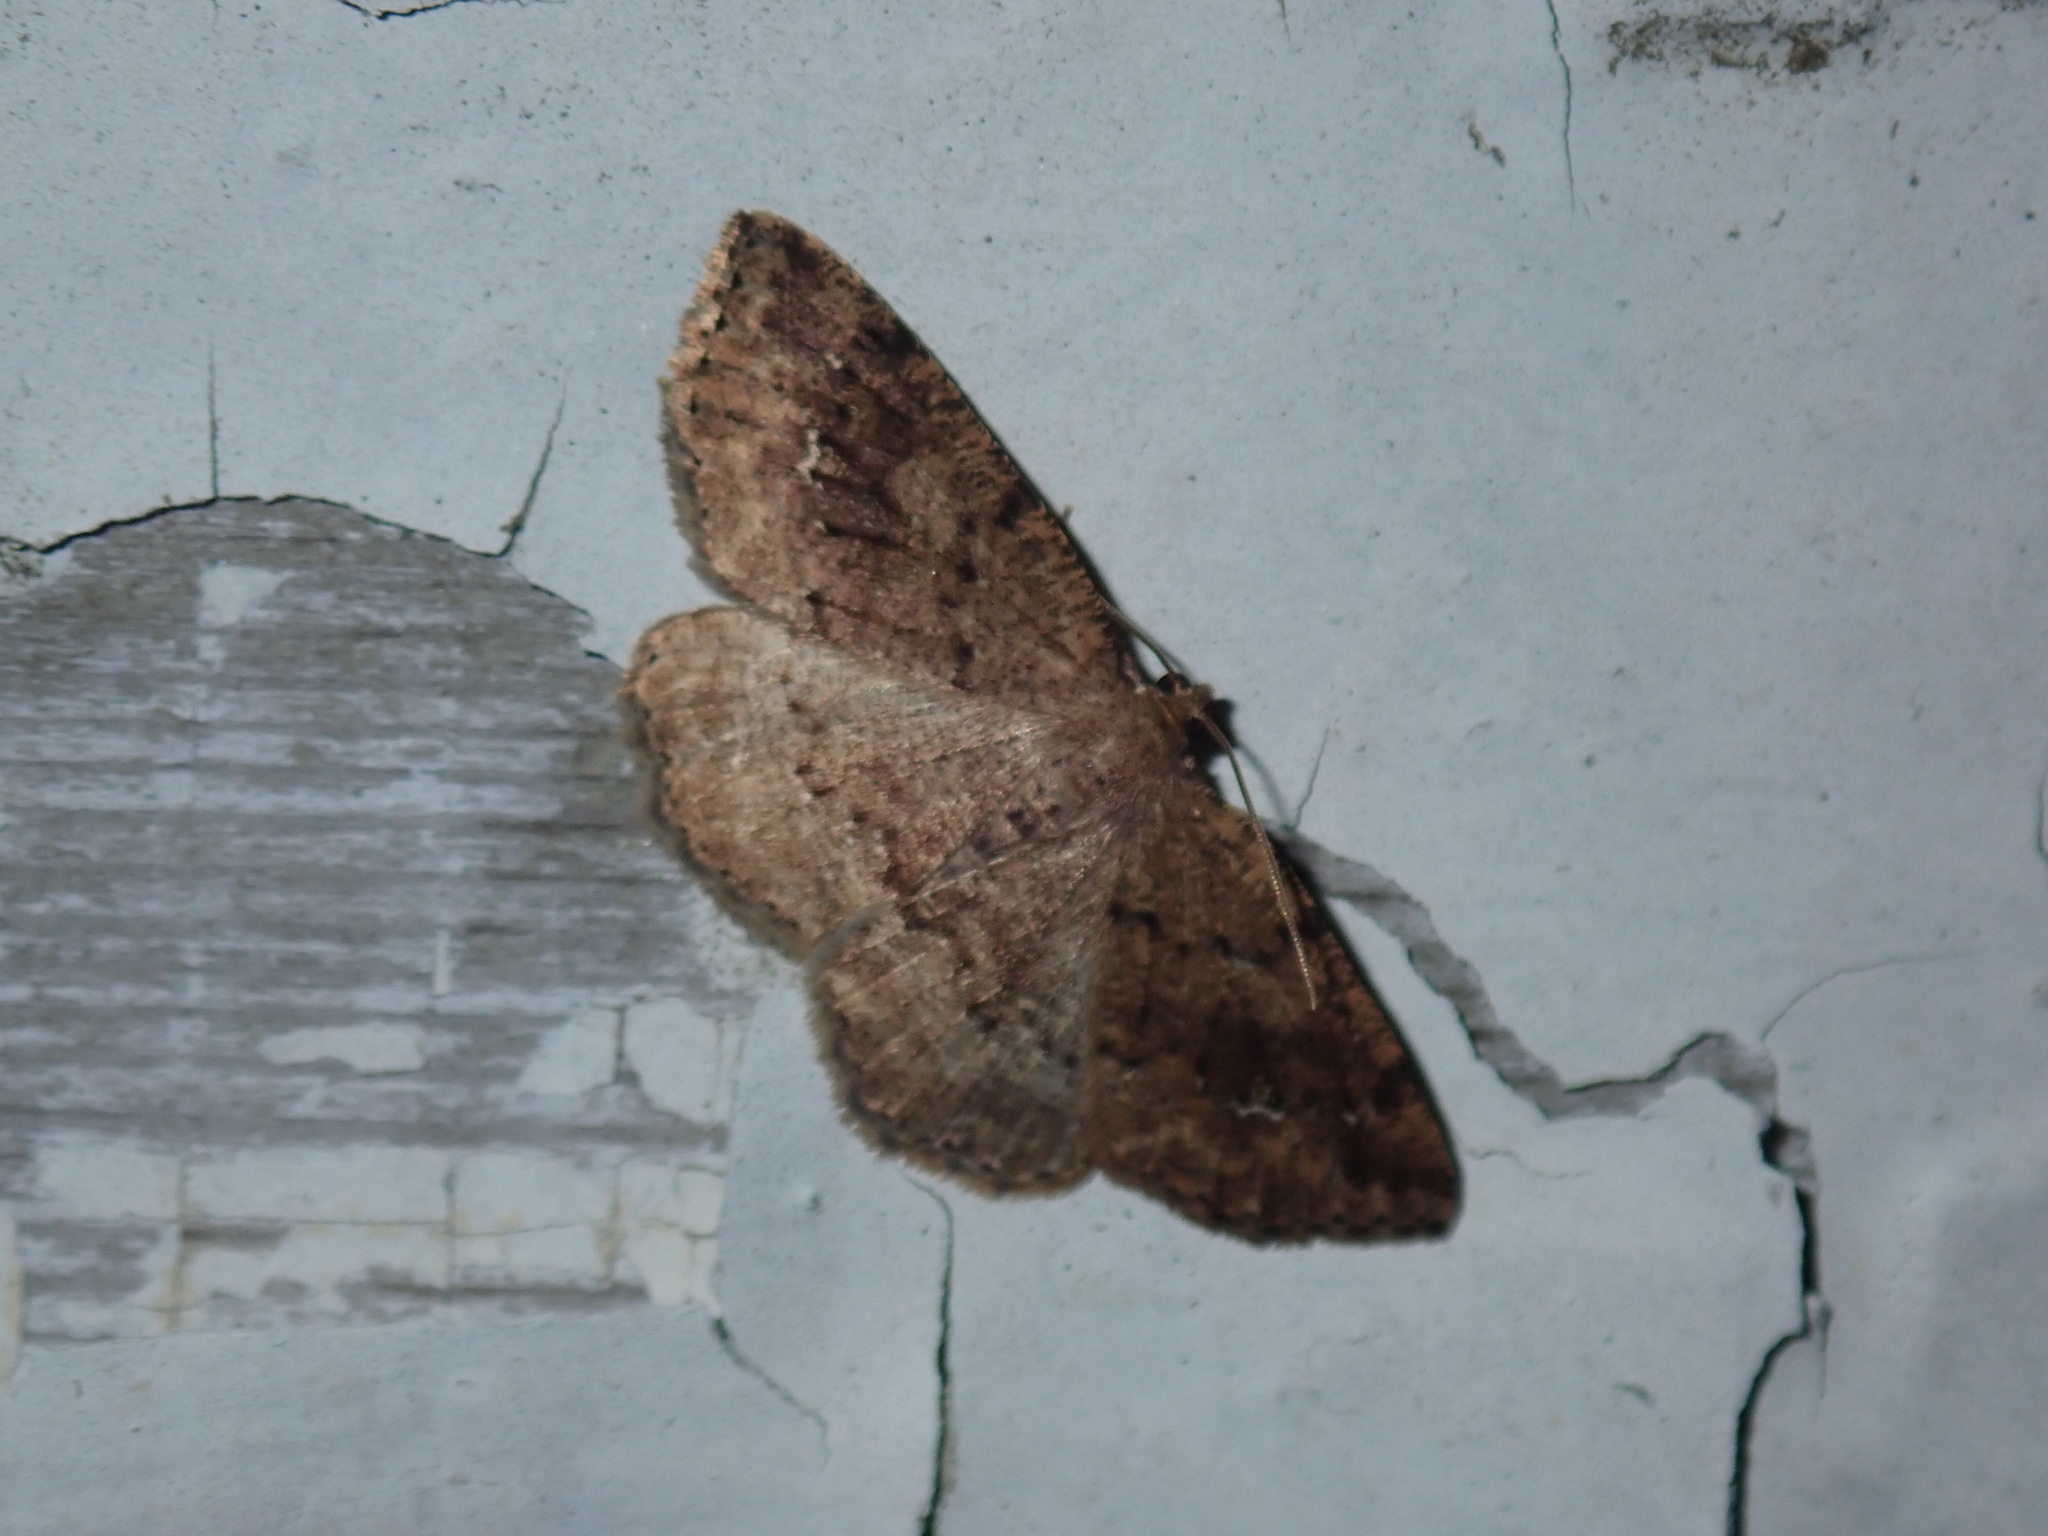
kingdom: Animalia
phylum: Arthropoda
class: Insecta
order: Lepidoptera
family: Geometridae
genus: Homochlodes
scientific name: Homochlodes fritillaria
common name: Pale homochlodes
